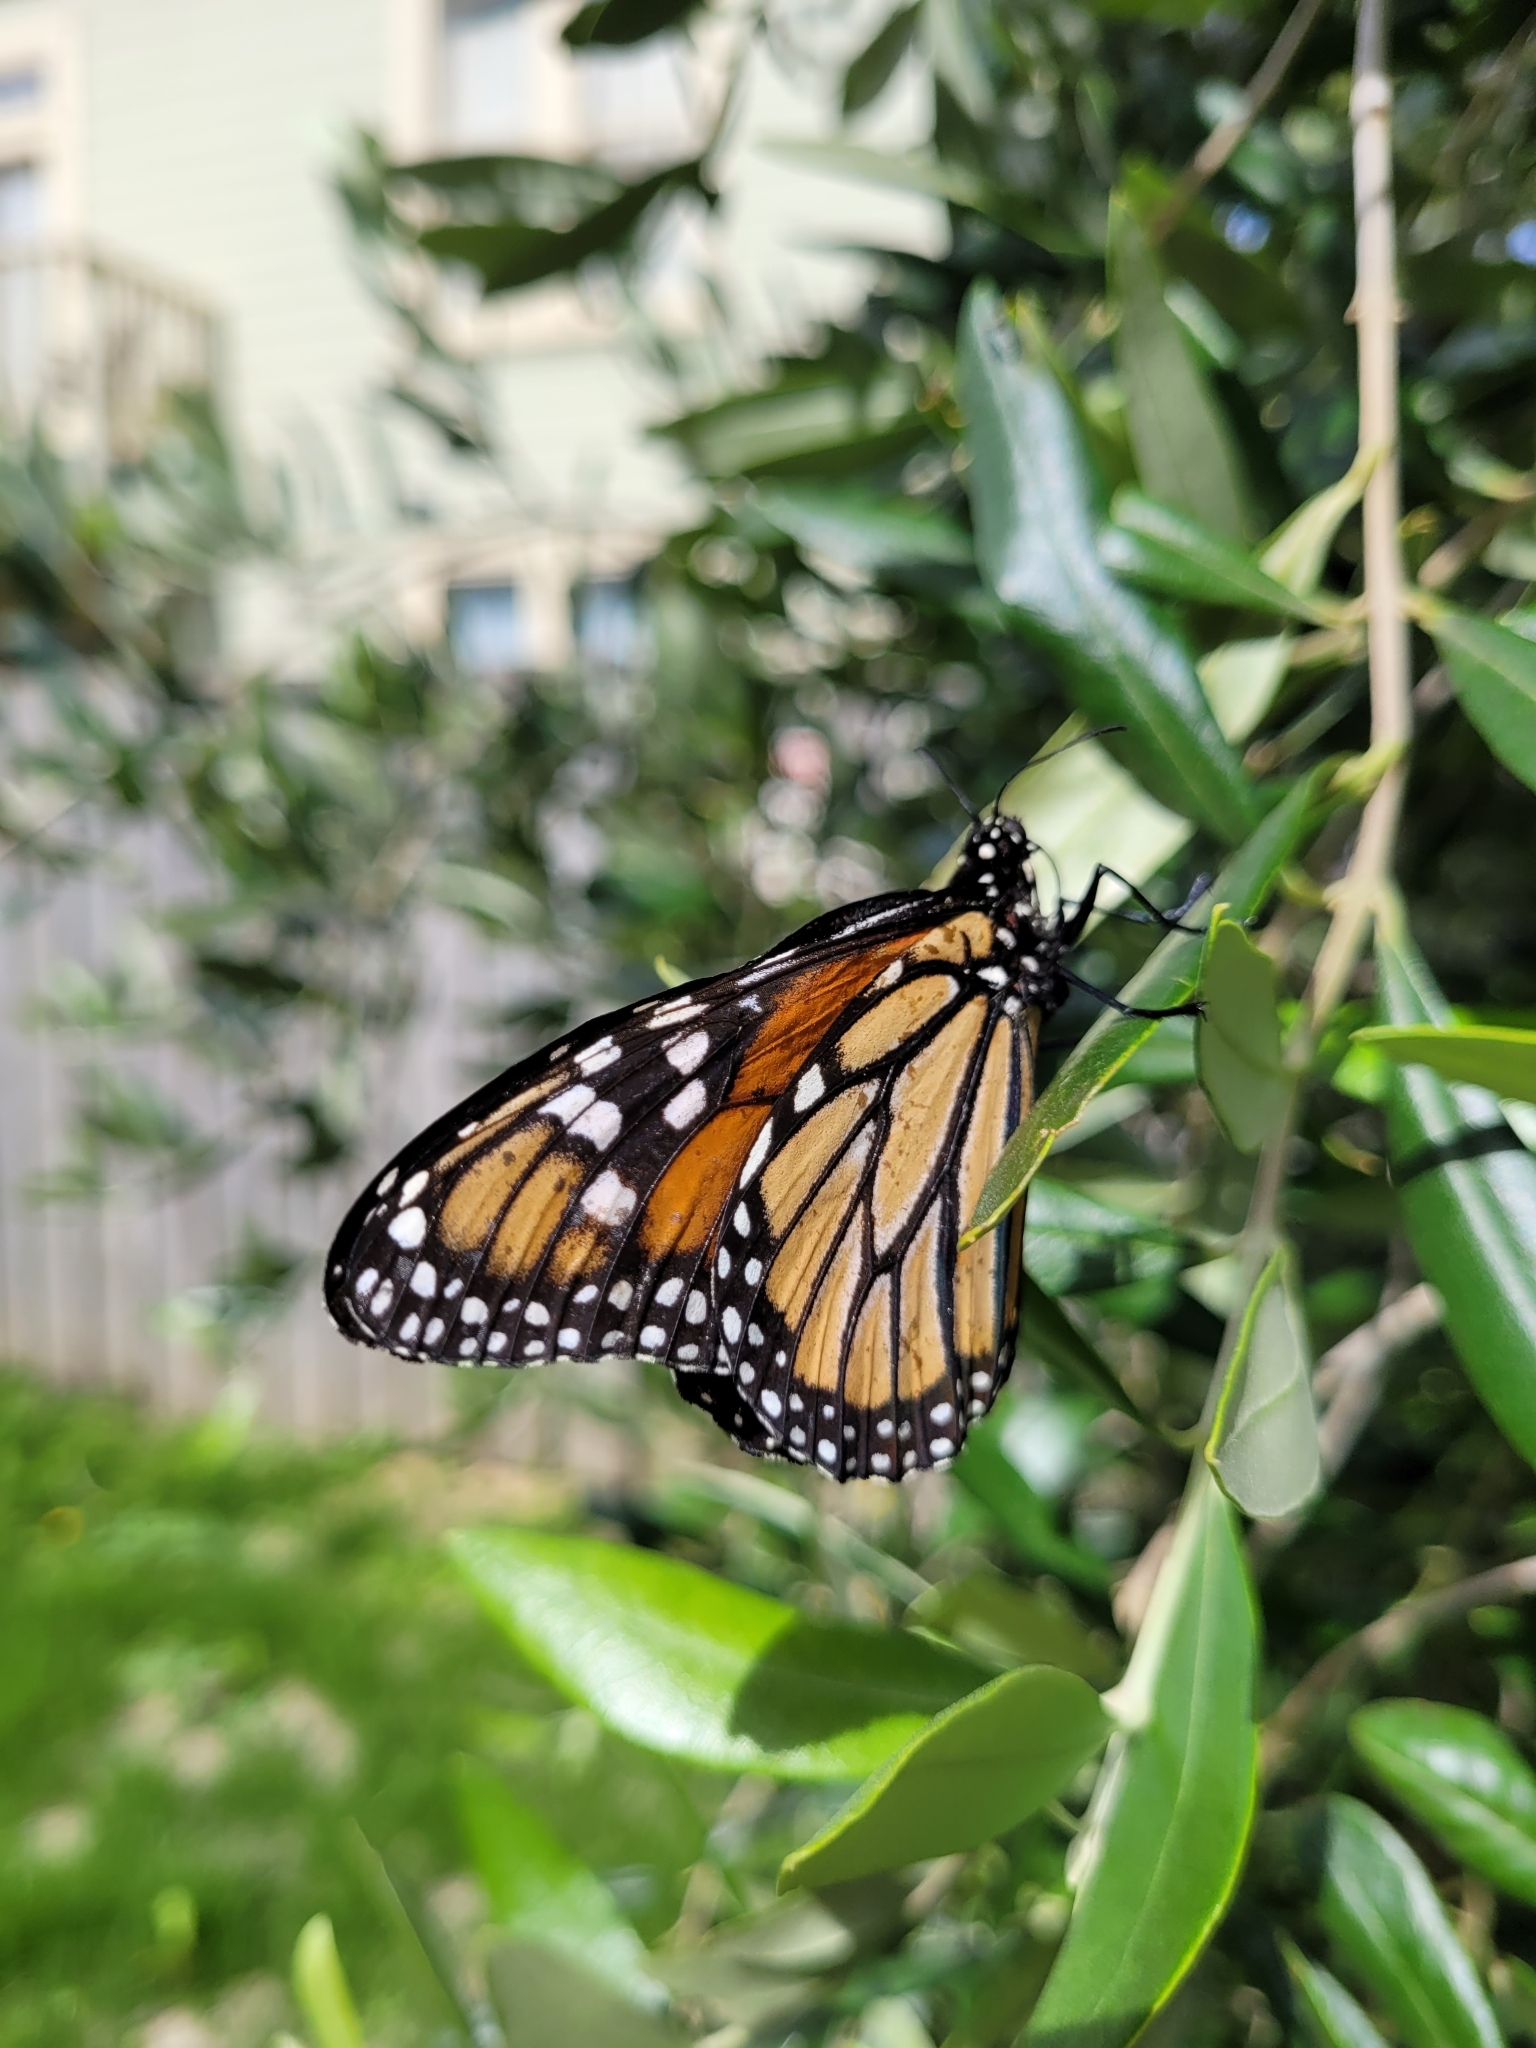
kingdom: Animalia
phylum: Arthropoda
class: Insecta
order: Lepidoptera
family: Nymphalidae
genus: Danaus
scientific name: Danaus plexippus
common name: Monarch
